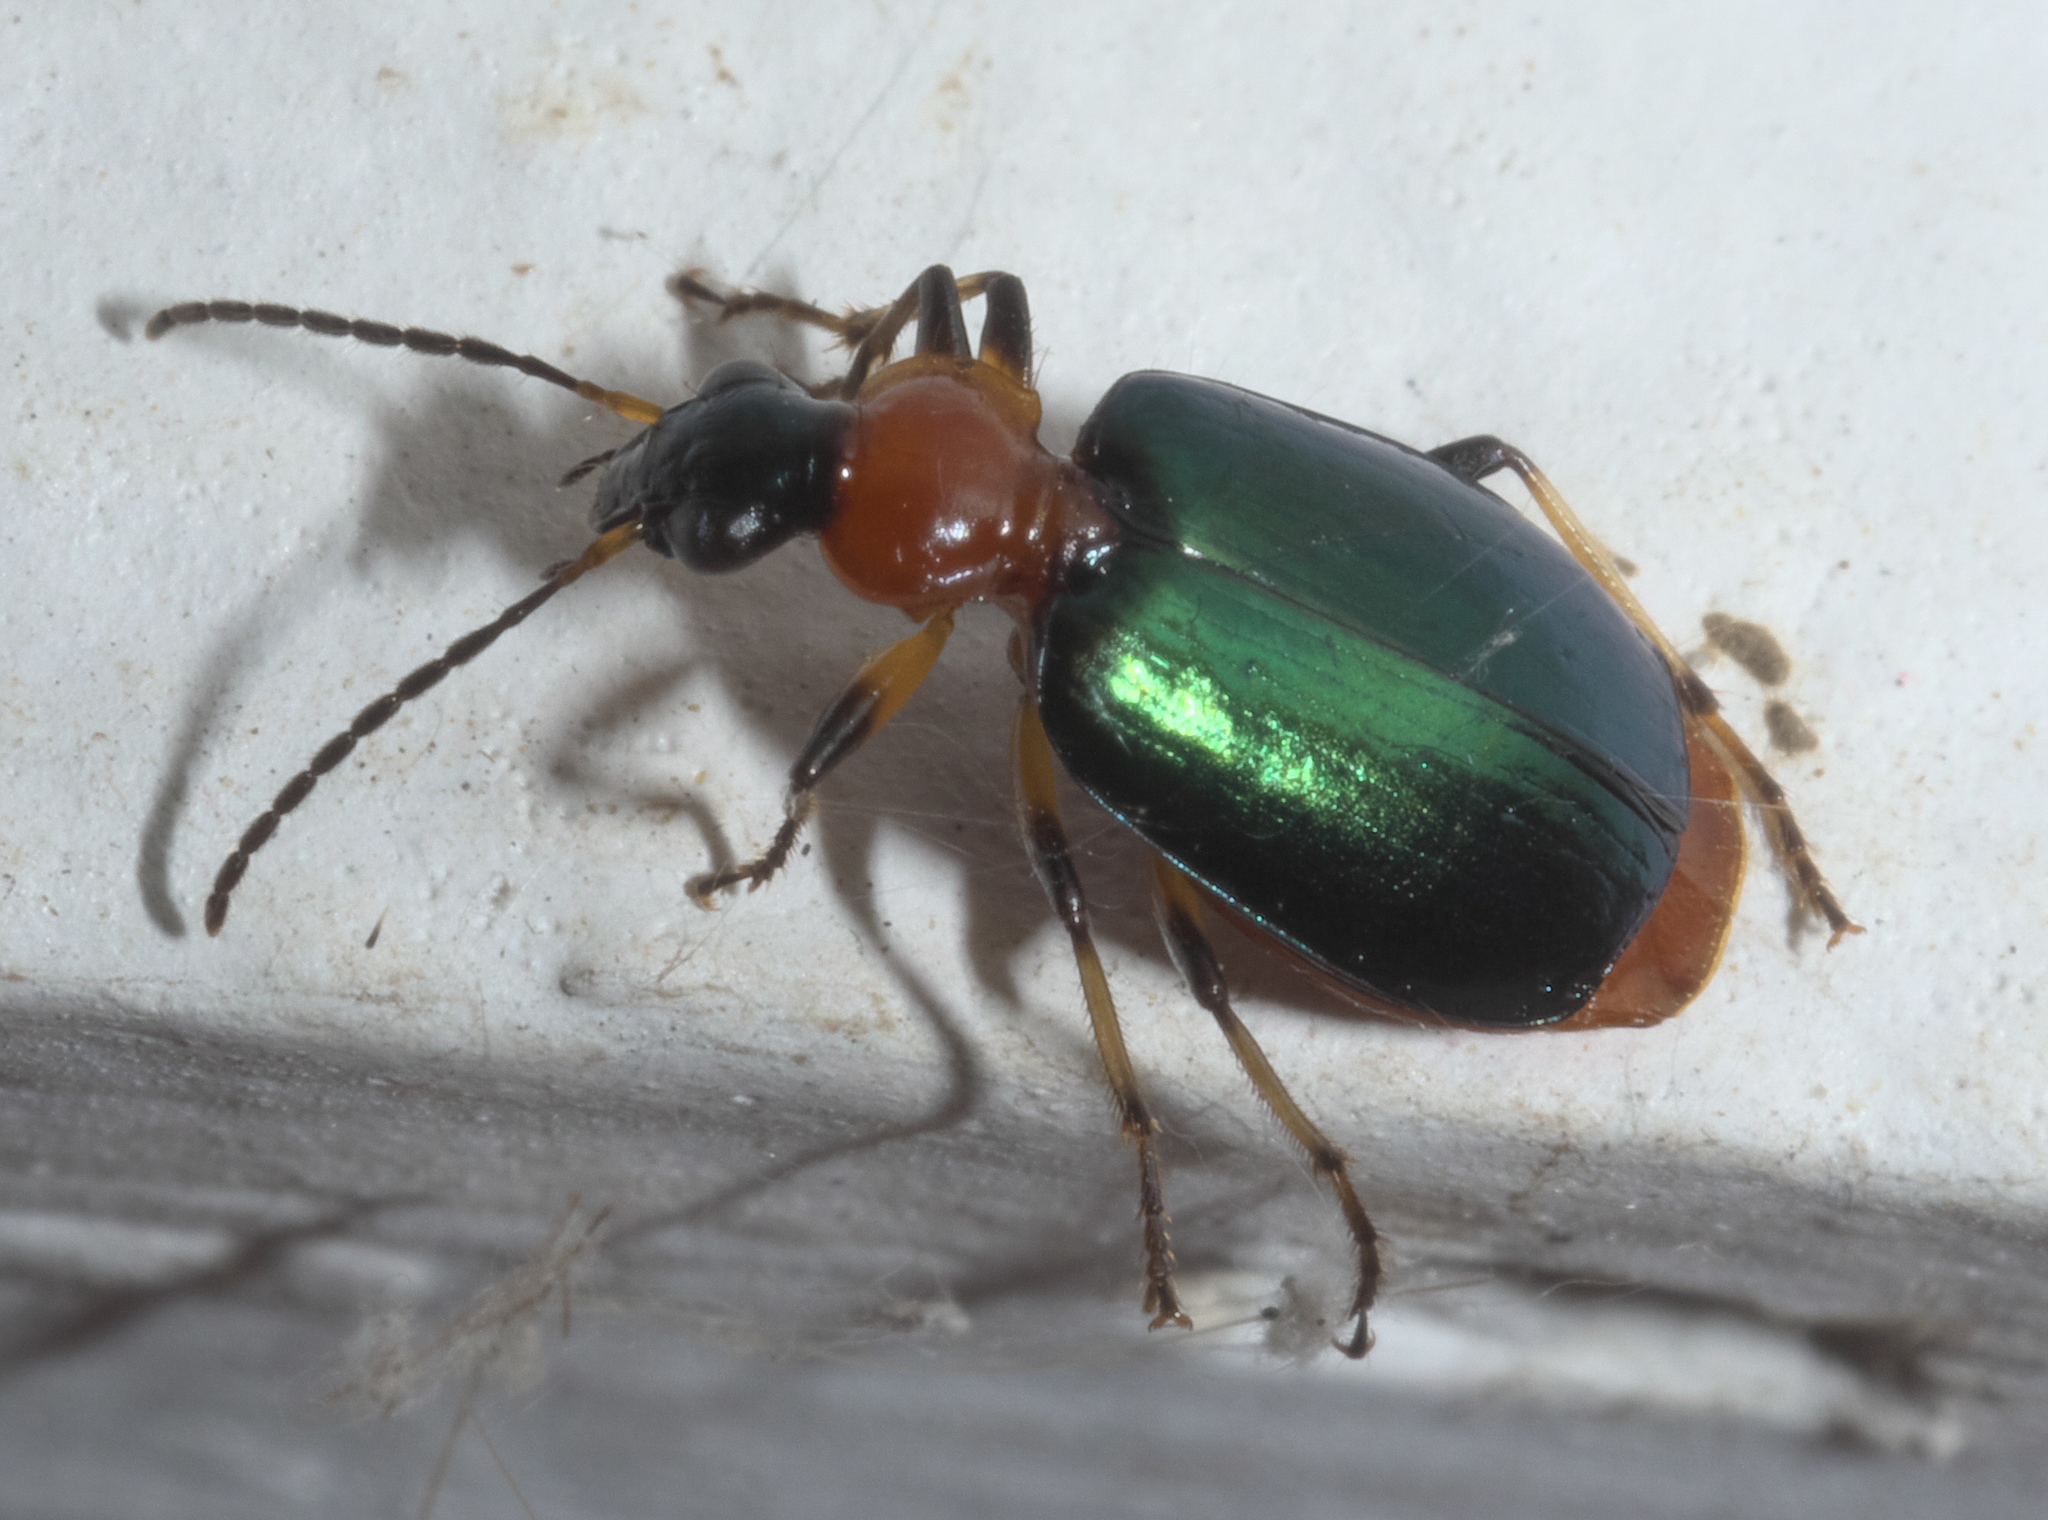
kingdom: Animalia
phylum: Arthropoda
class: Insecta
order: Coleoptera
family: Carabidae
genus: Lebia
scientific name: Lebia viridipennis
